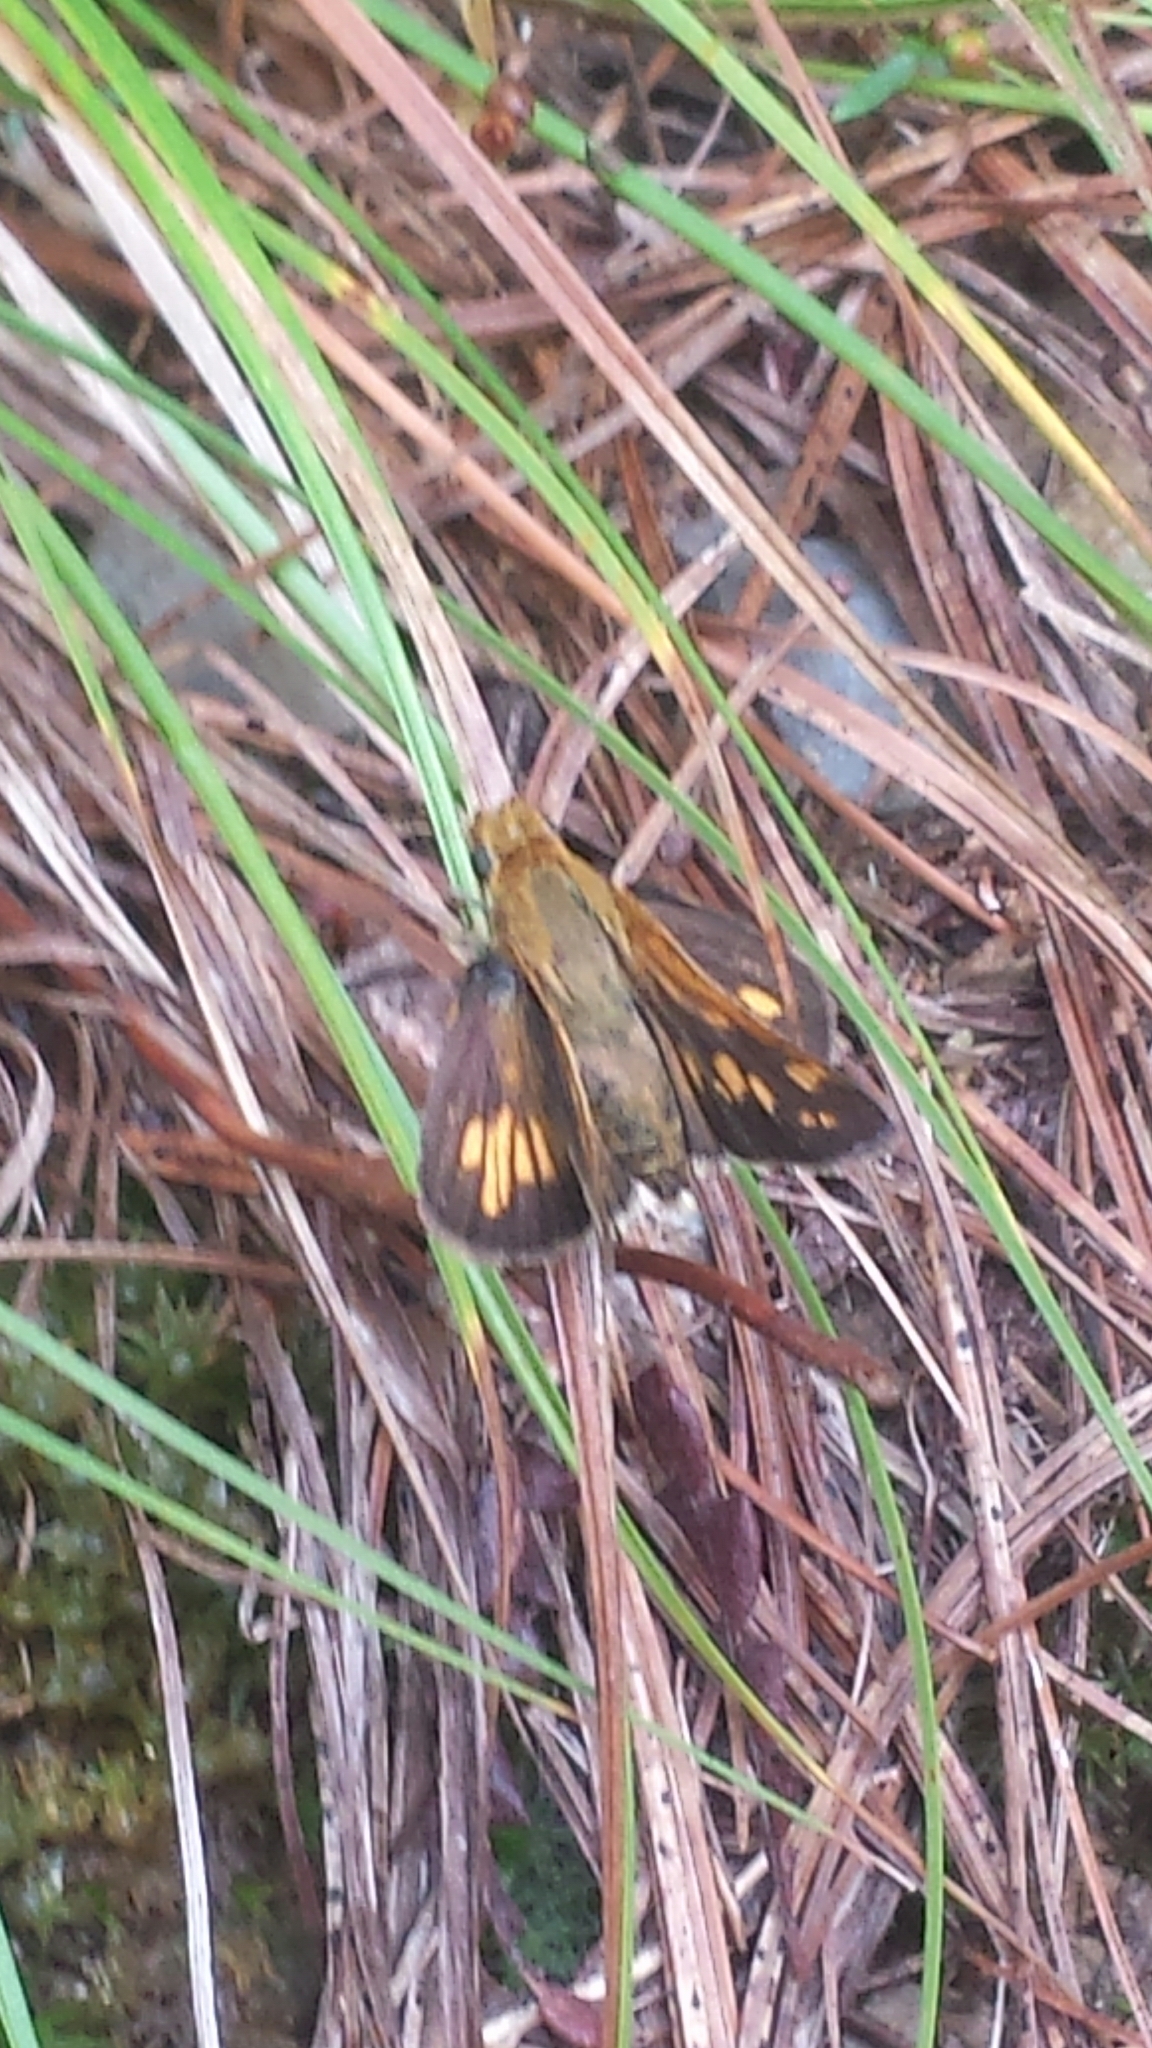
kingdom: Animalia
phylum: Arthropoda
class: Insecta
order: Lepidoptera
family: Hesperiidae
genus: Polites
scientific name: Polites coras
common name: Peck's skipper
